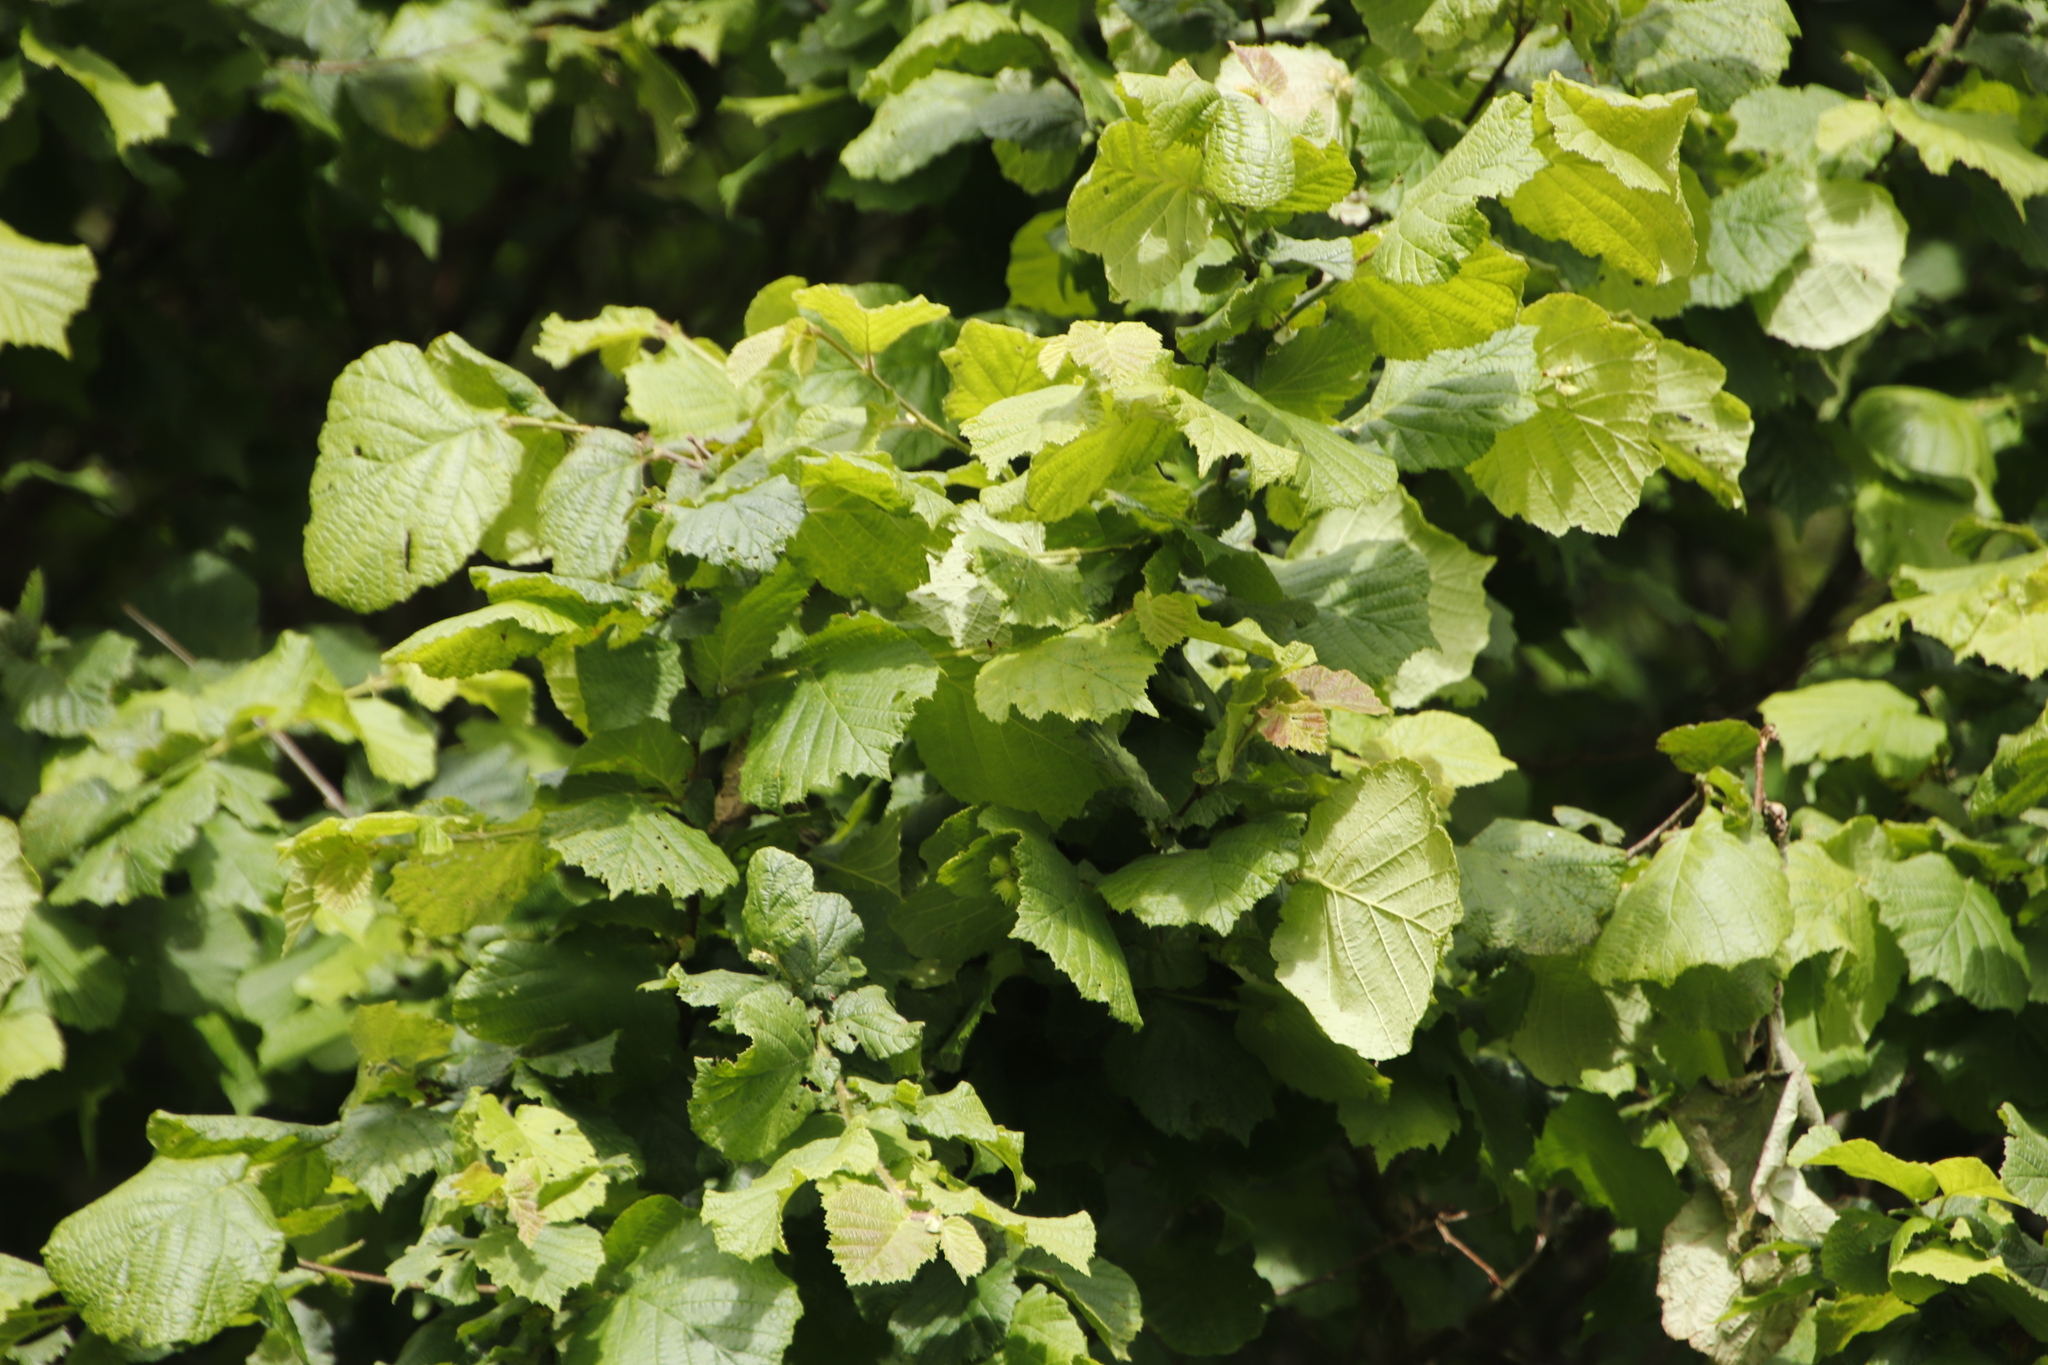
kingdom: Plantae
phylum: Tracheophyta
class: Magnoliopsida
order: Fagales
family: Betulaceae
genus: Corylus
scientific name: Corylus avellana
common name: European hazel
